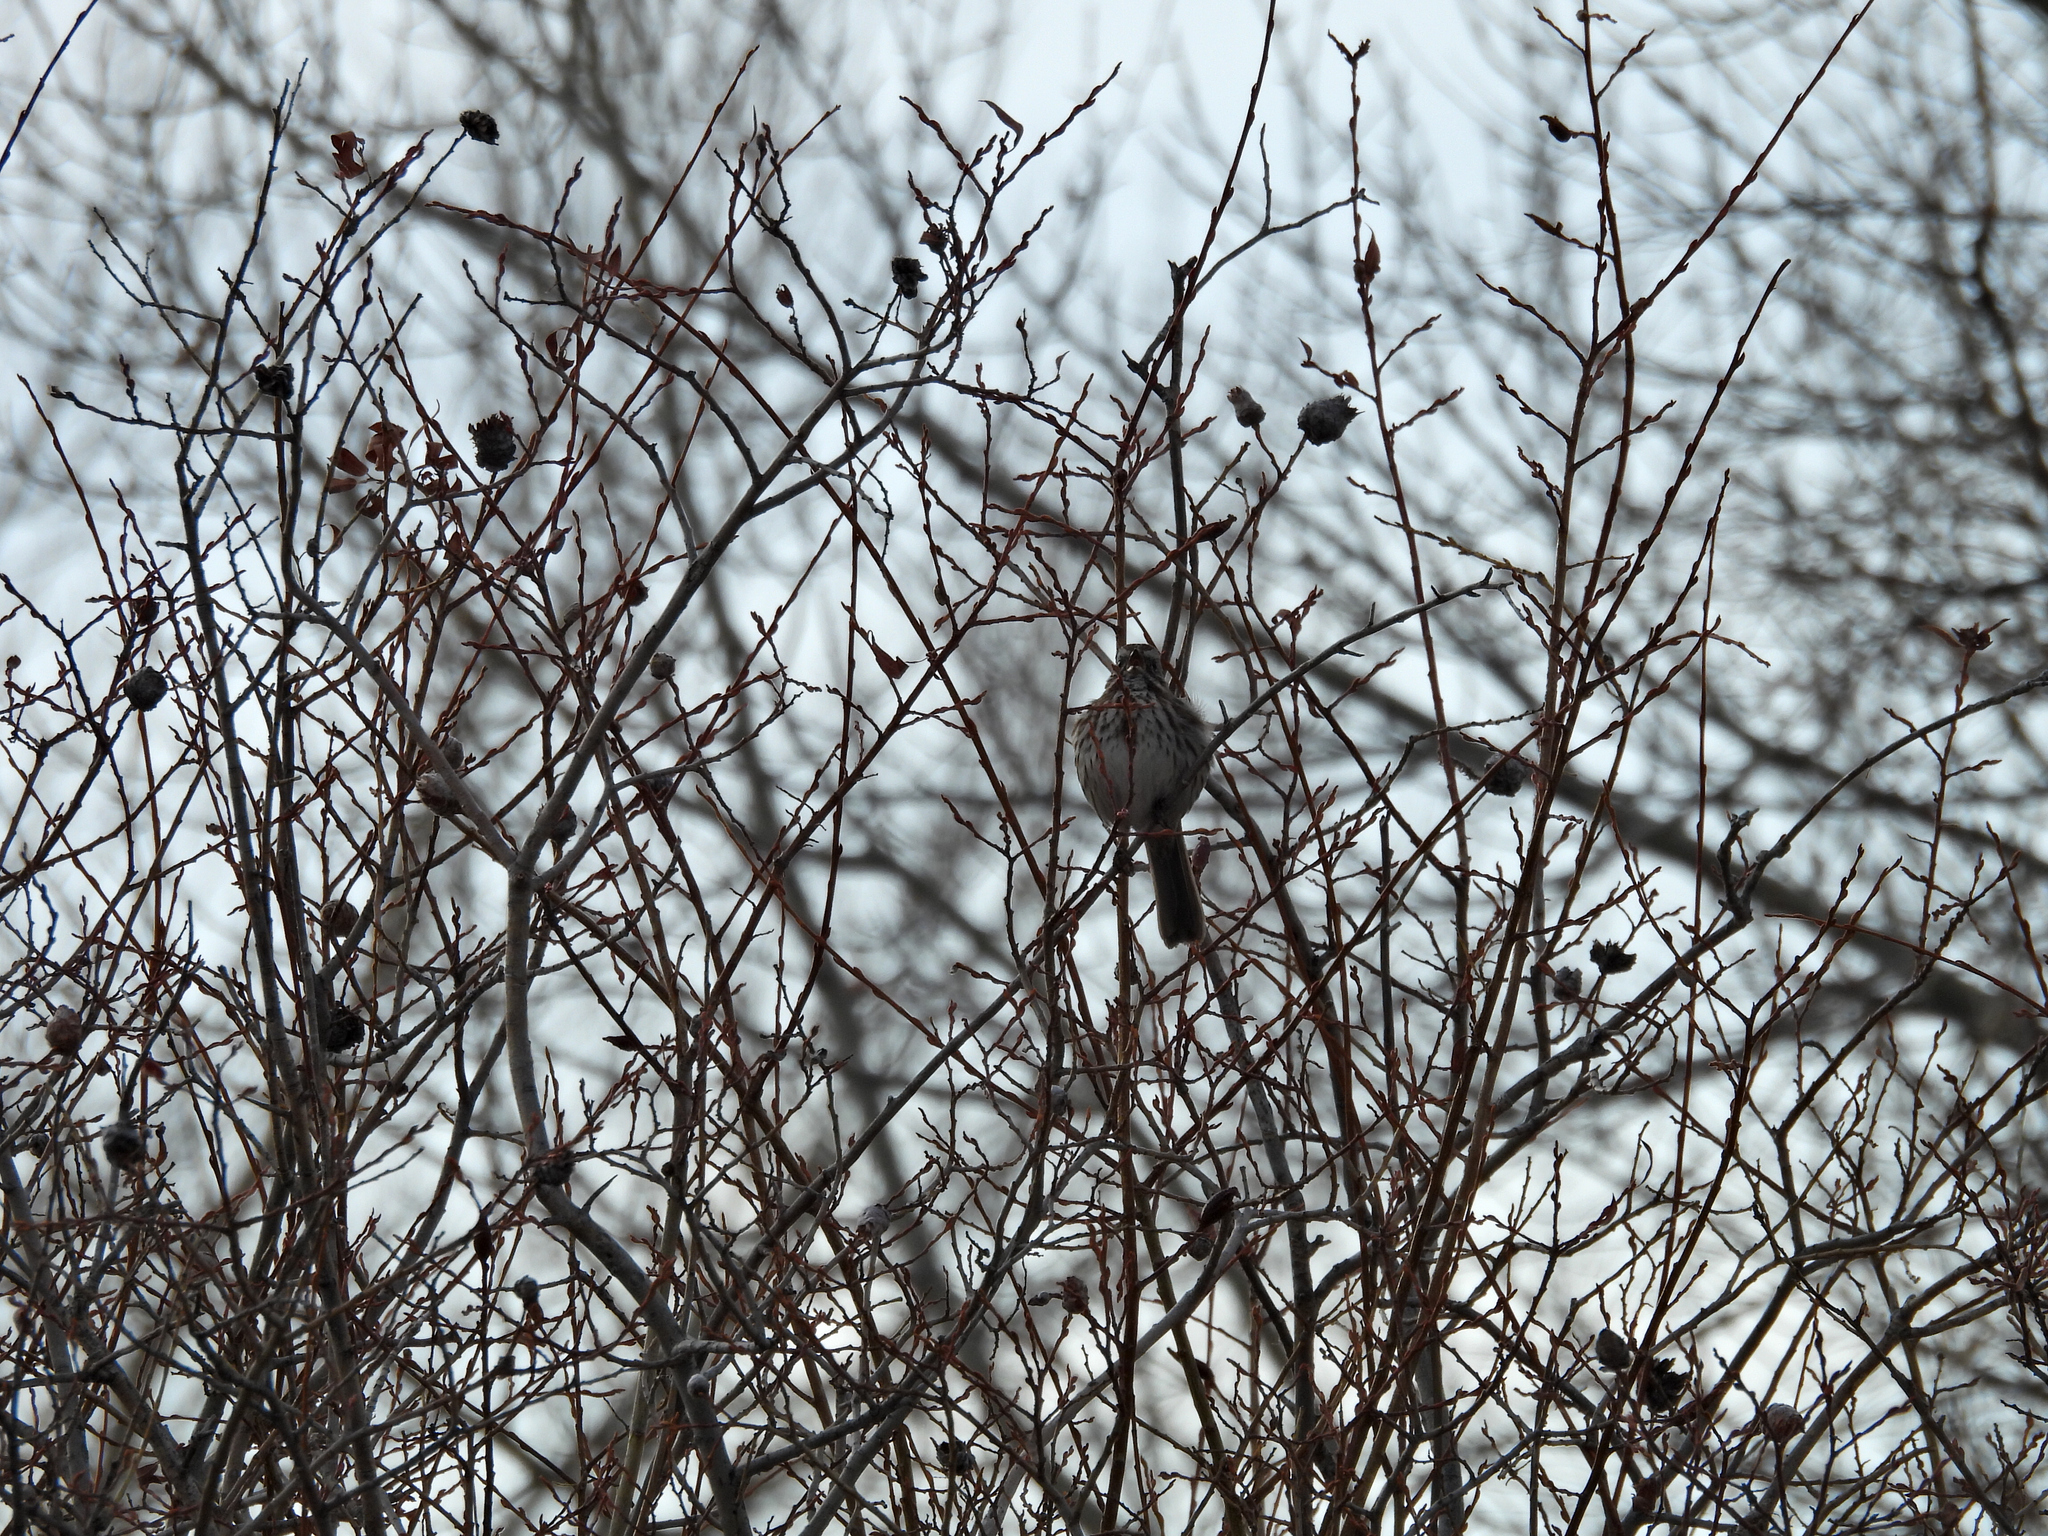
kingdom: Animalia
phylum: Chordata
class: Aves
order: Passeriformes
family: Passerellidae
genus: Melospiza
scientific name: Melospiza melodia
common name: Song sparrow
